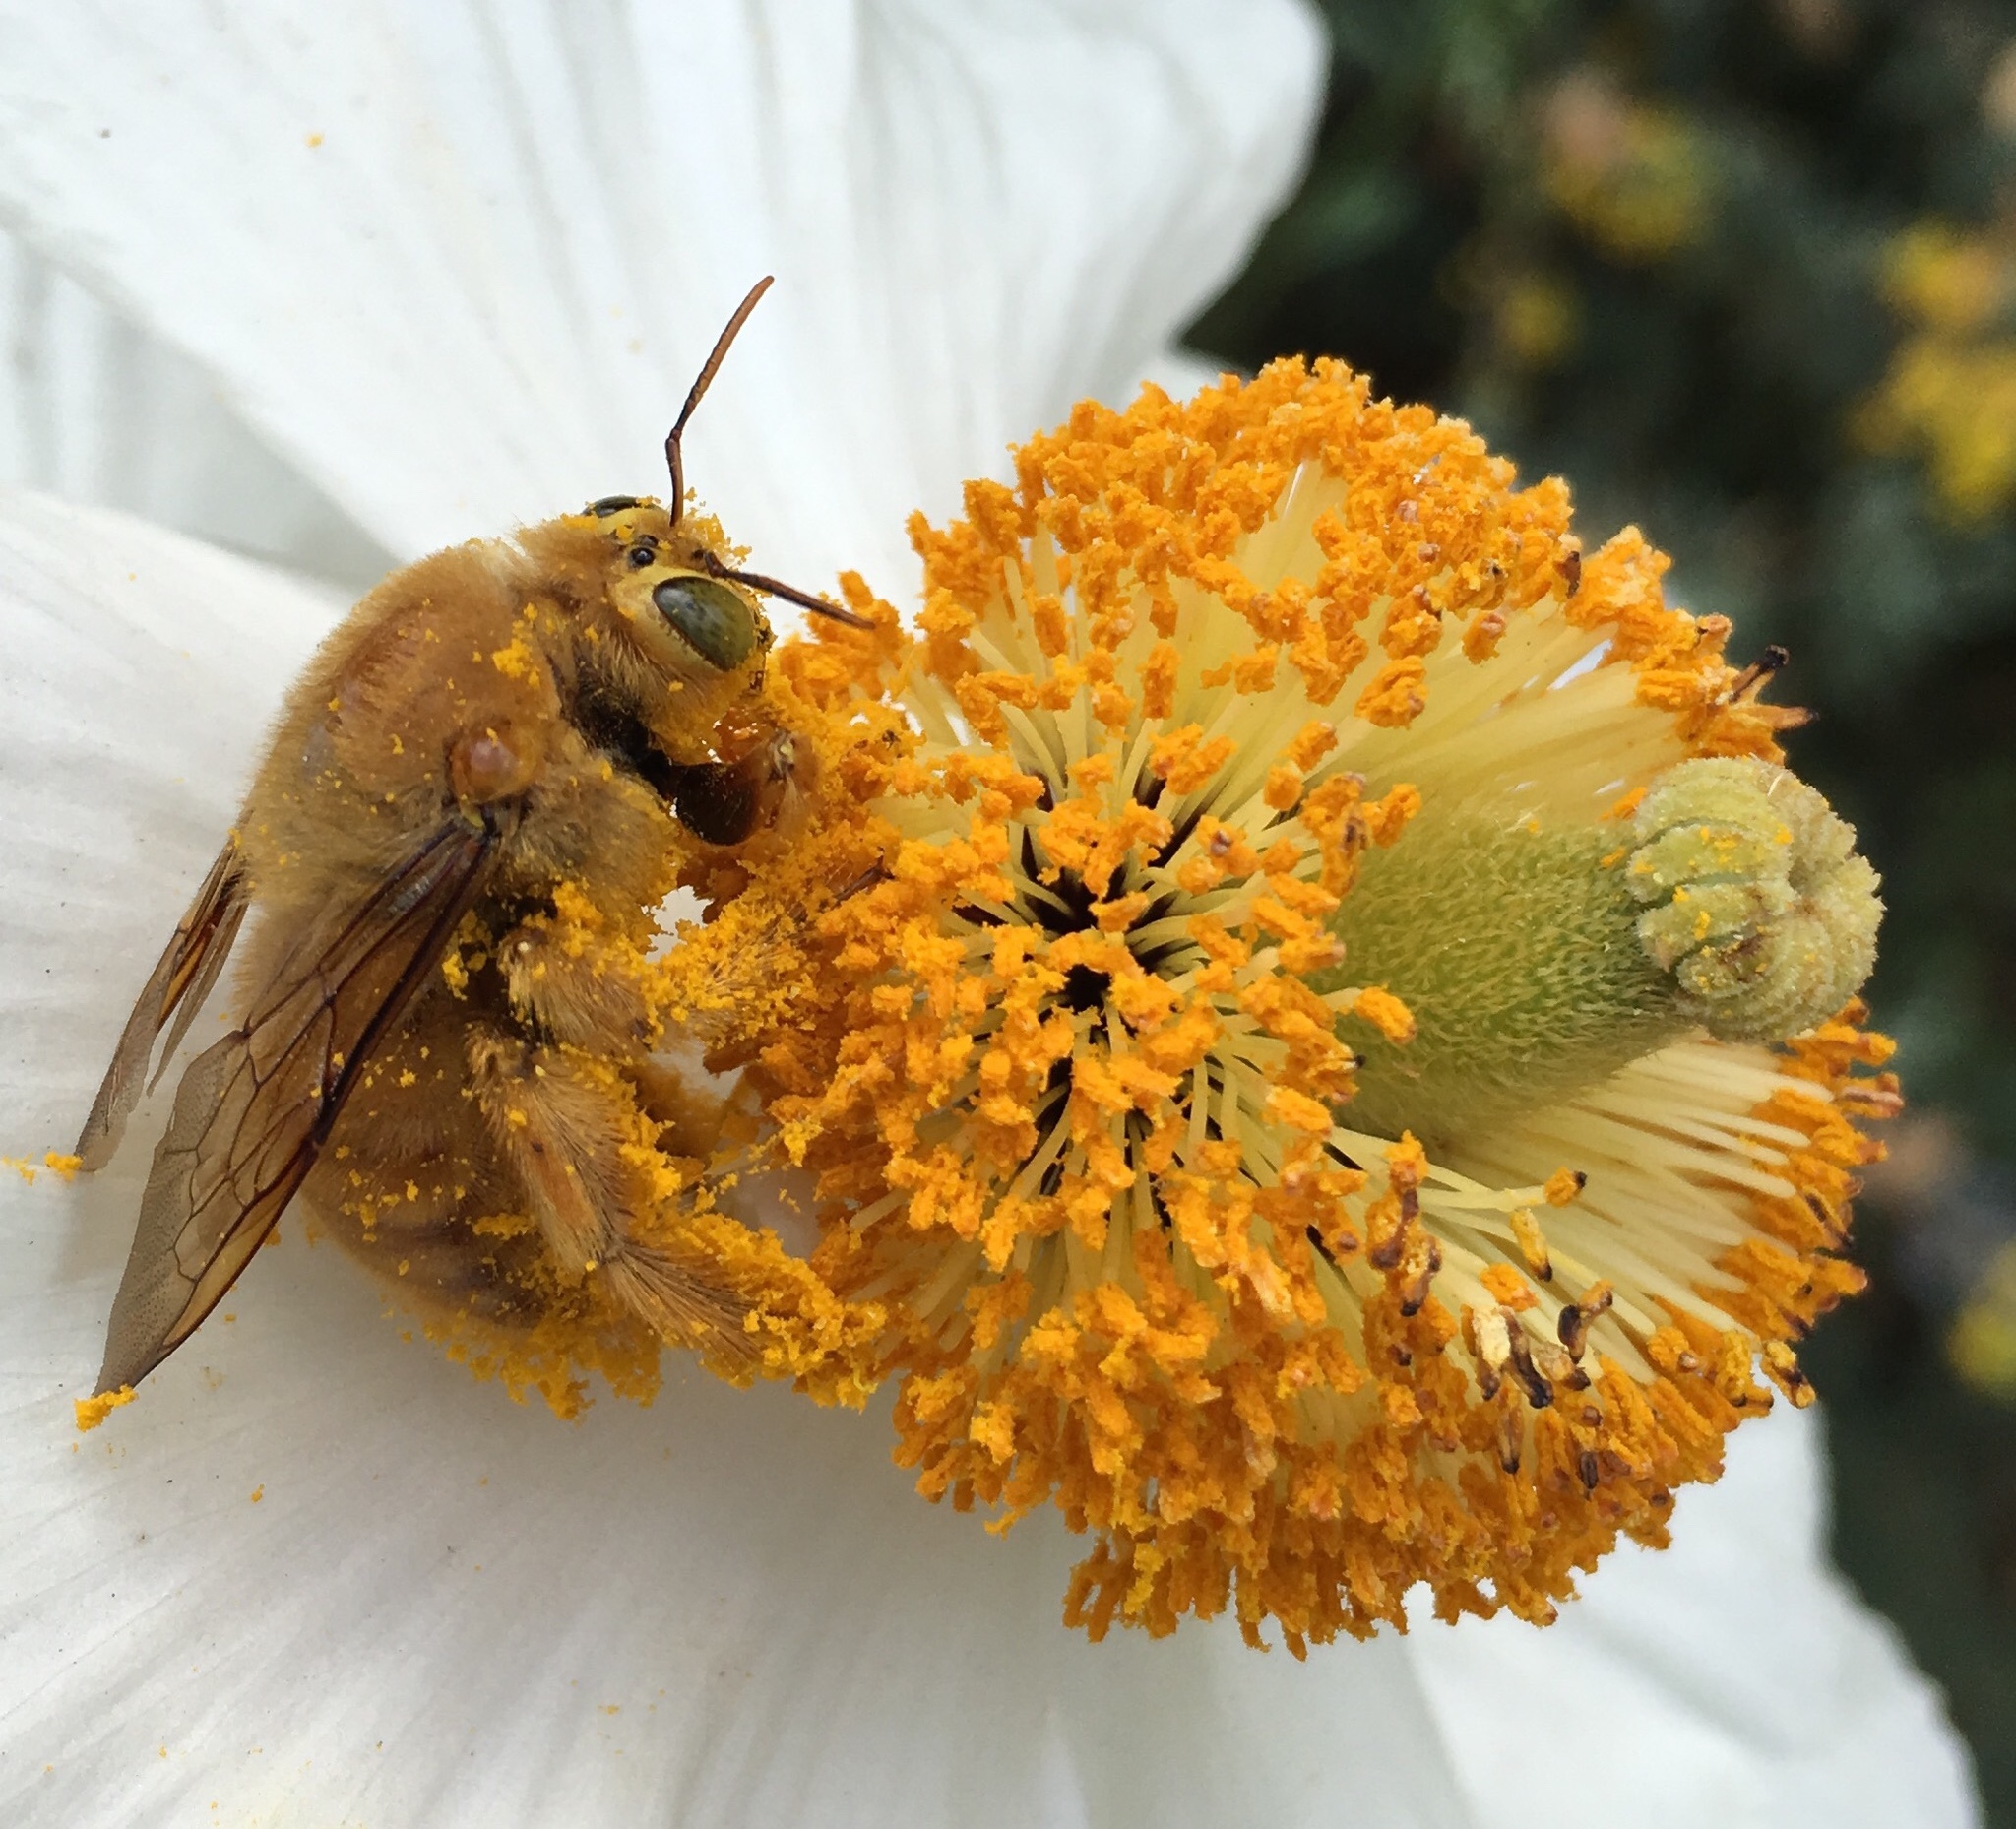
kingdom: Animalia
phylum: Arthropoda
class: Insecta
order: Hymenoptera
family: Apidae
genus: Xylocopa
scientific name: Xylocopa sonorina
